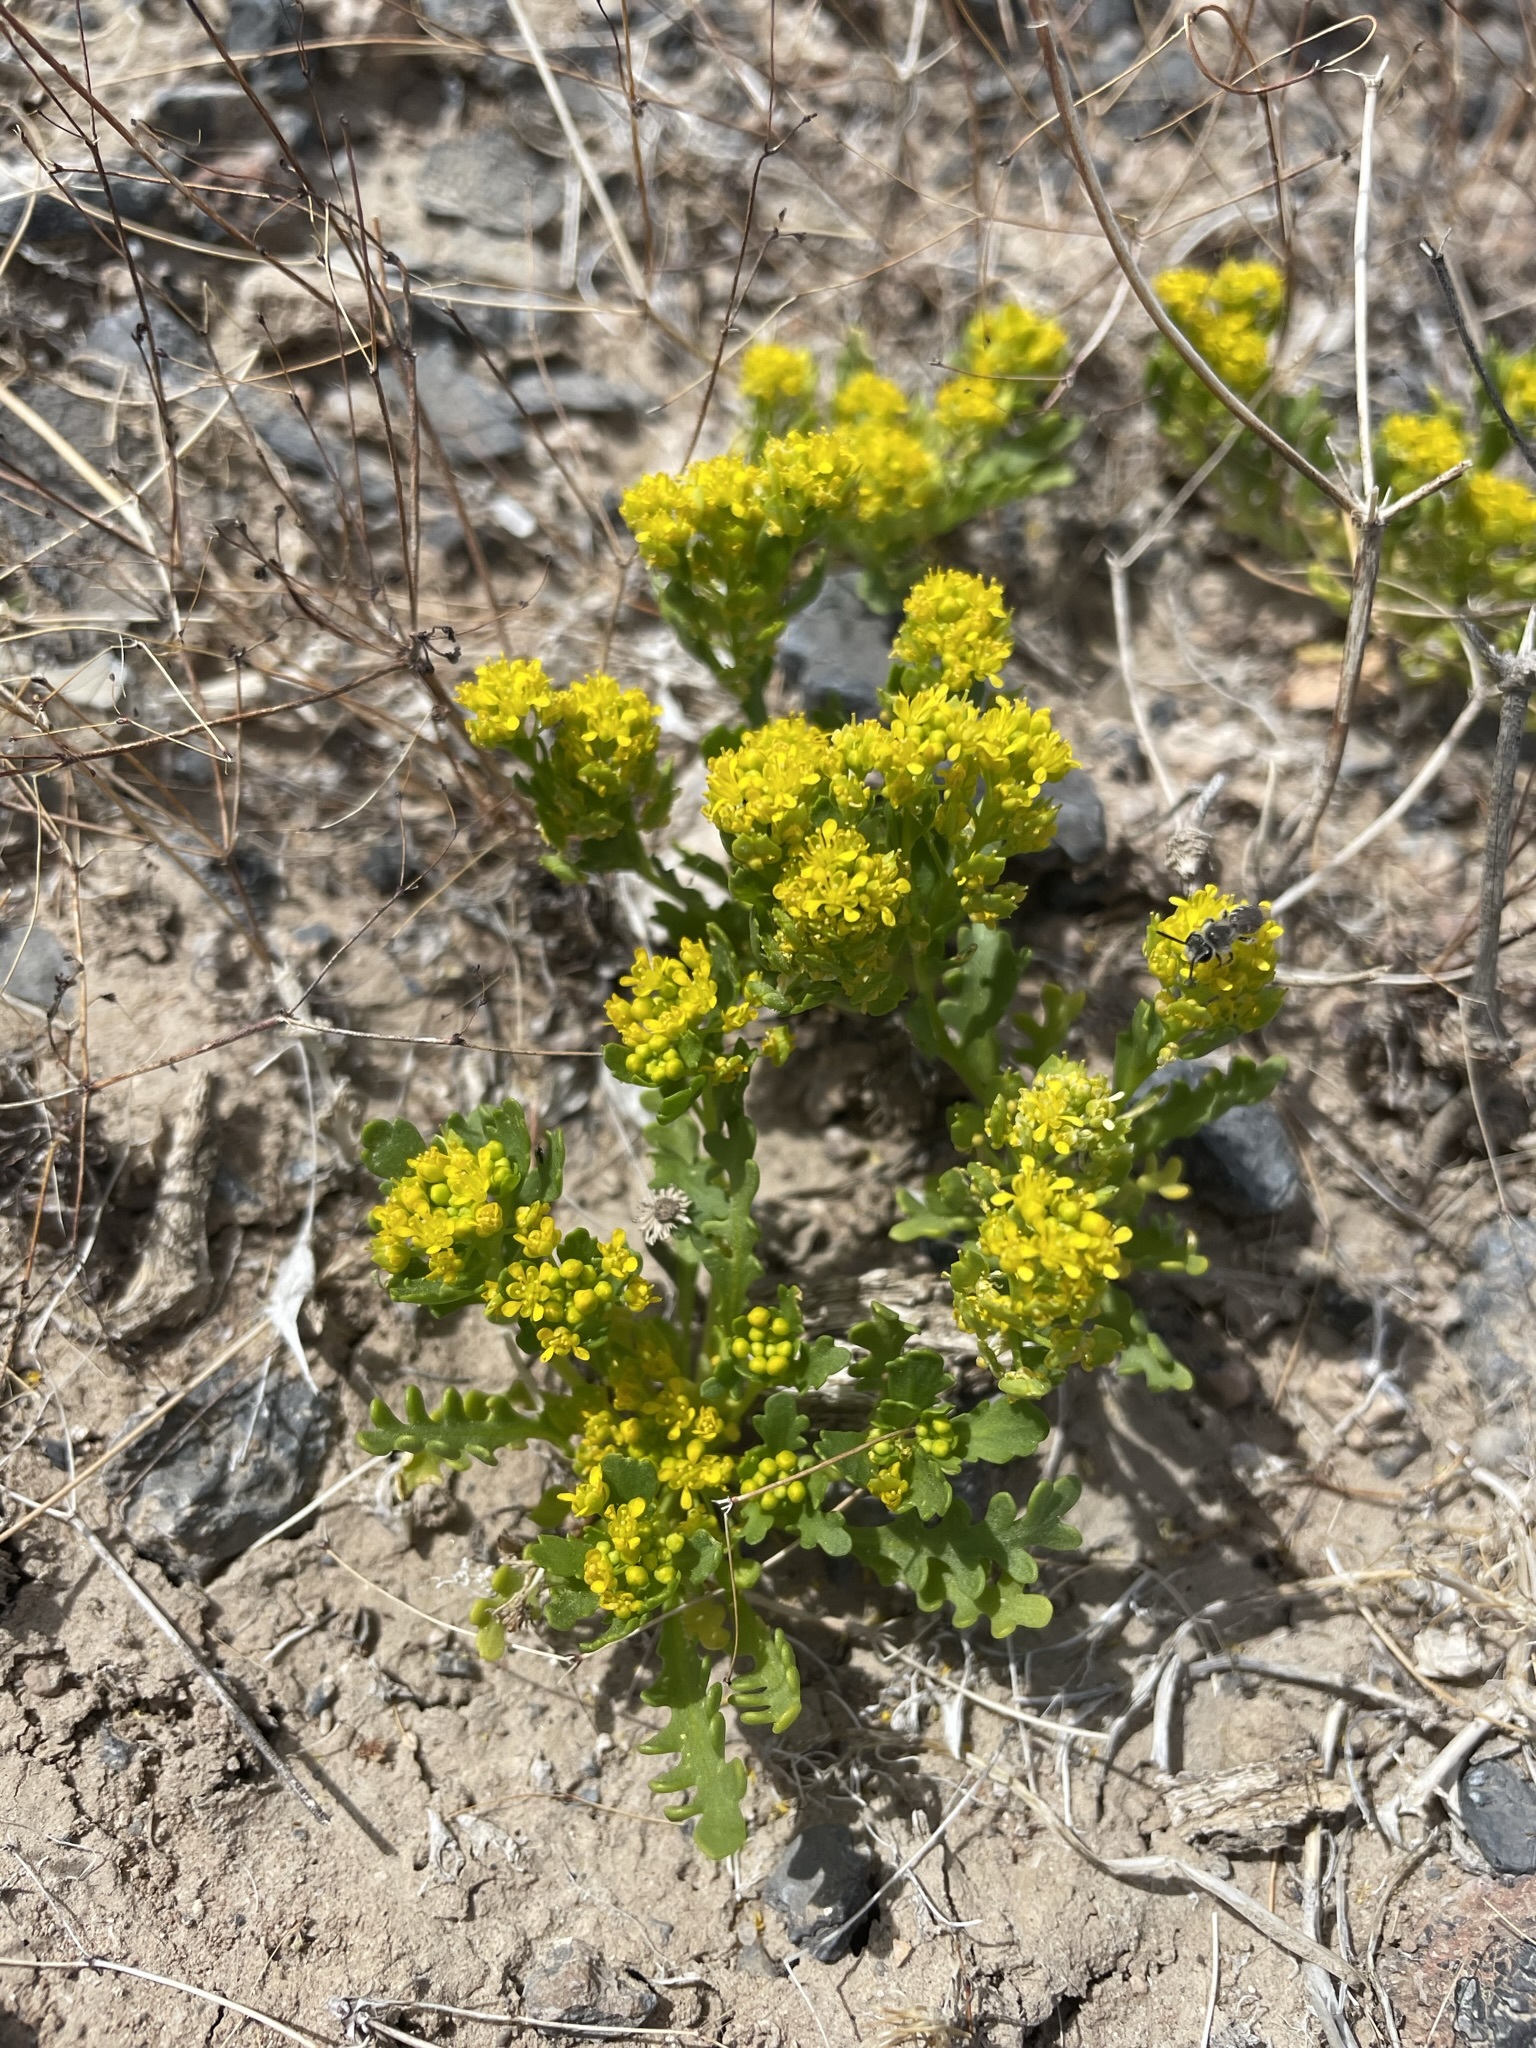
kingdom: Plantae
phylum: Tracheophyta
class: Magnoliopsida
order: Brassicales
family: Brassicaceae
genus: Lepidium
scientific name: Lepidium flavum
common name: Yellow pepperwort
